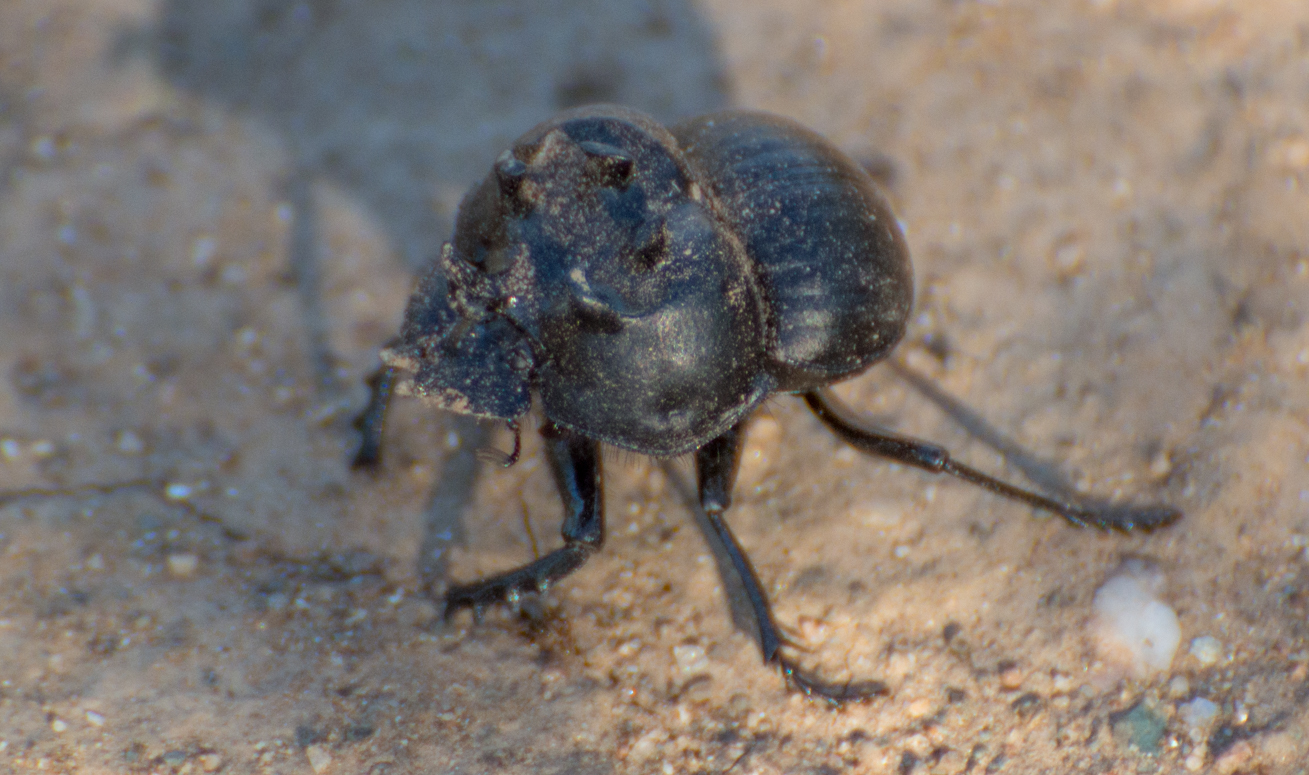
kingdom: Animalia
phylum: Arthropoda
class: Insecta
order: Coleoptera
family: Scarabaeidae
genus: Glyphoderus
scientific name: Glyphoderus sterquilinus
